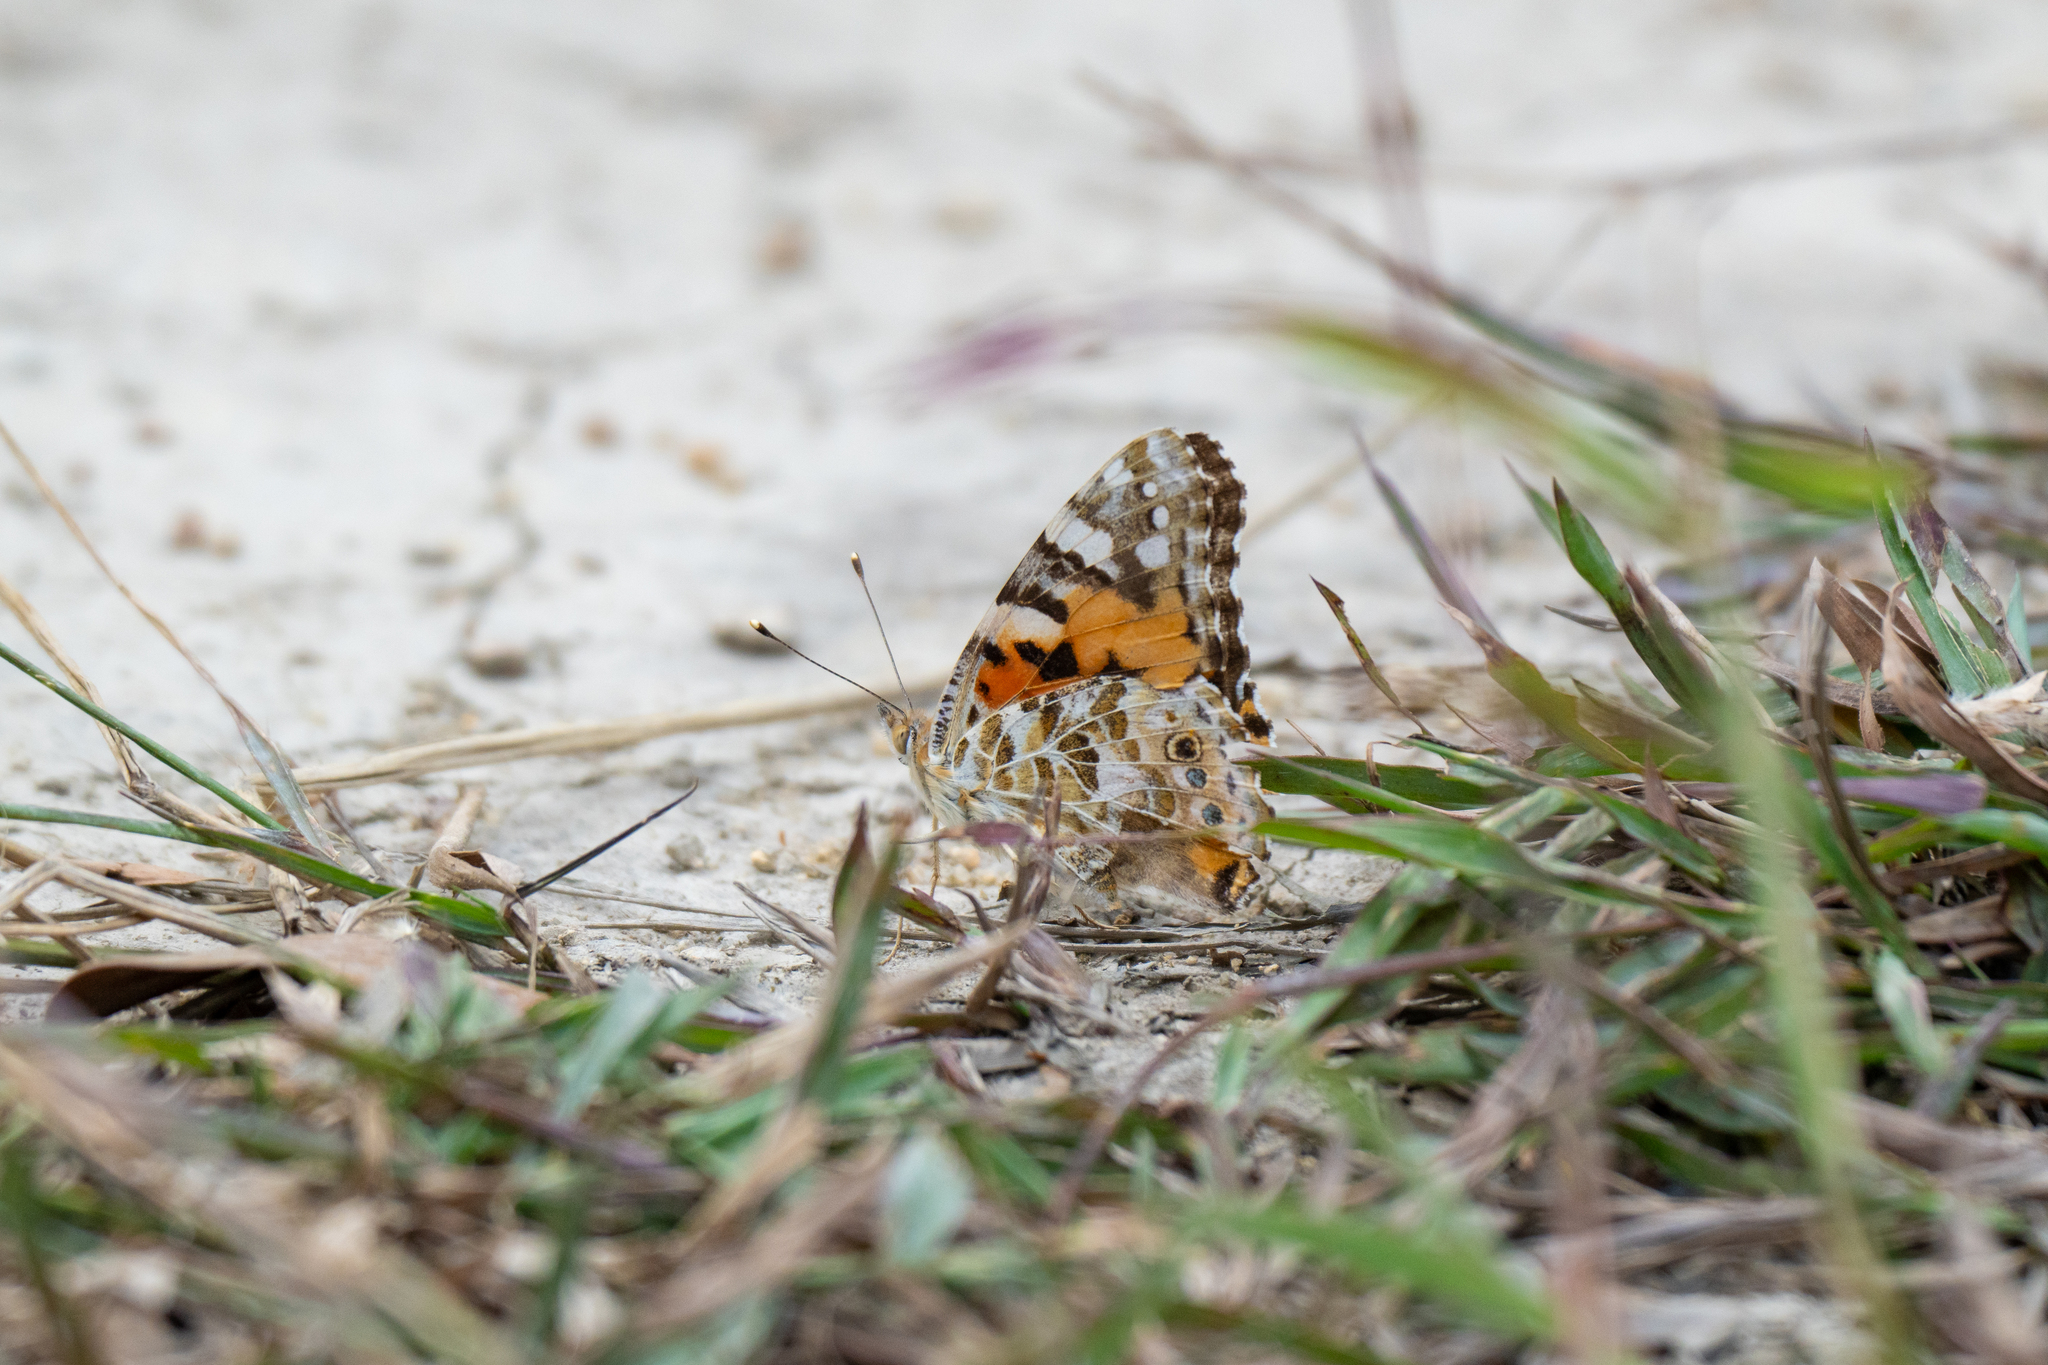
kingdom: Animalia
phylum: Arthropoda
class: Insecta
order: Lepidoptera
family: Nymphalidae
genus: Vanessa
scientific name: Vanessa cardui
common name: Painted lady
